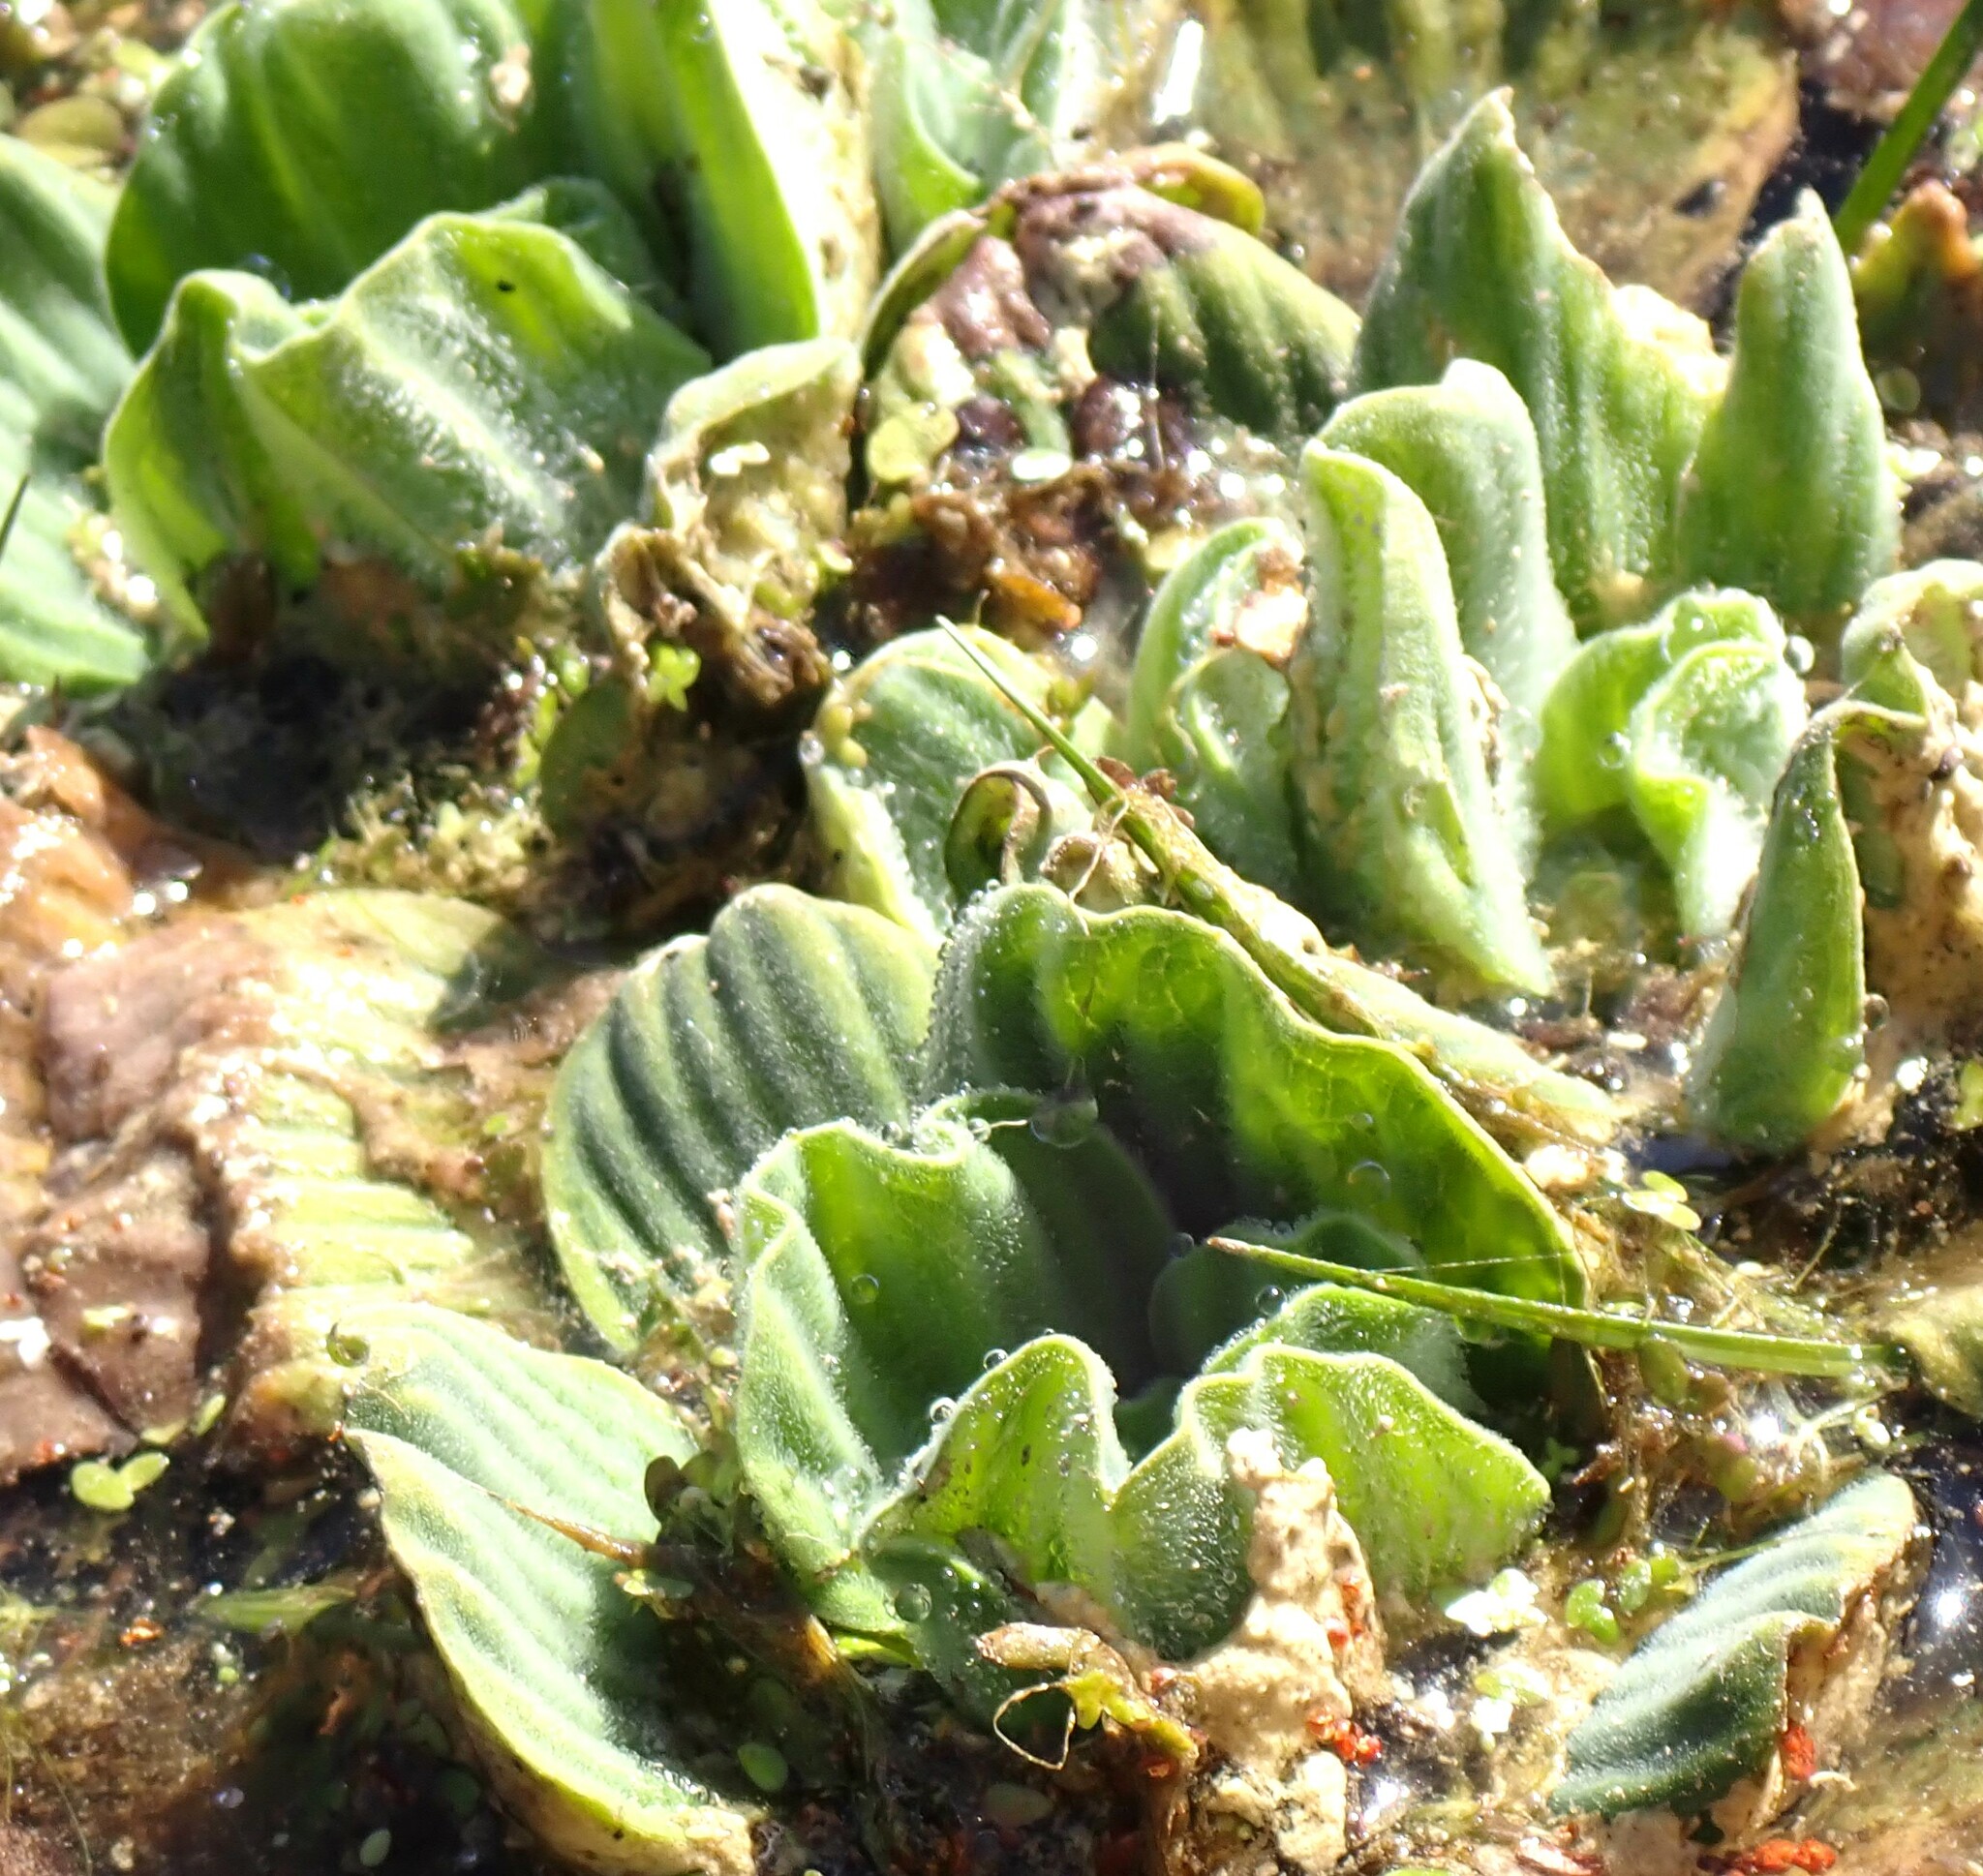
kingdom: Plantae
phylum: Tracheophyta
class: Liliopsida
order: Alismatales
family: Araceae
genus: Pistia
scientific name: Pistia stratiotes
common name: Water lettuce
